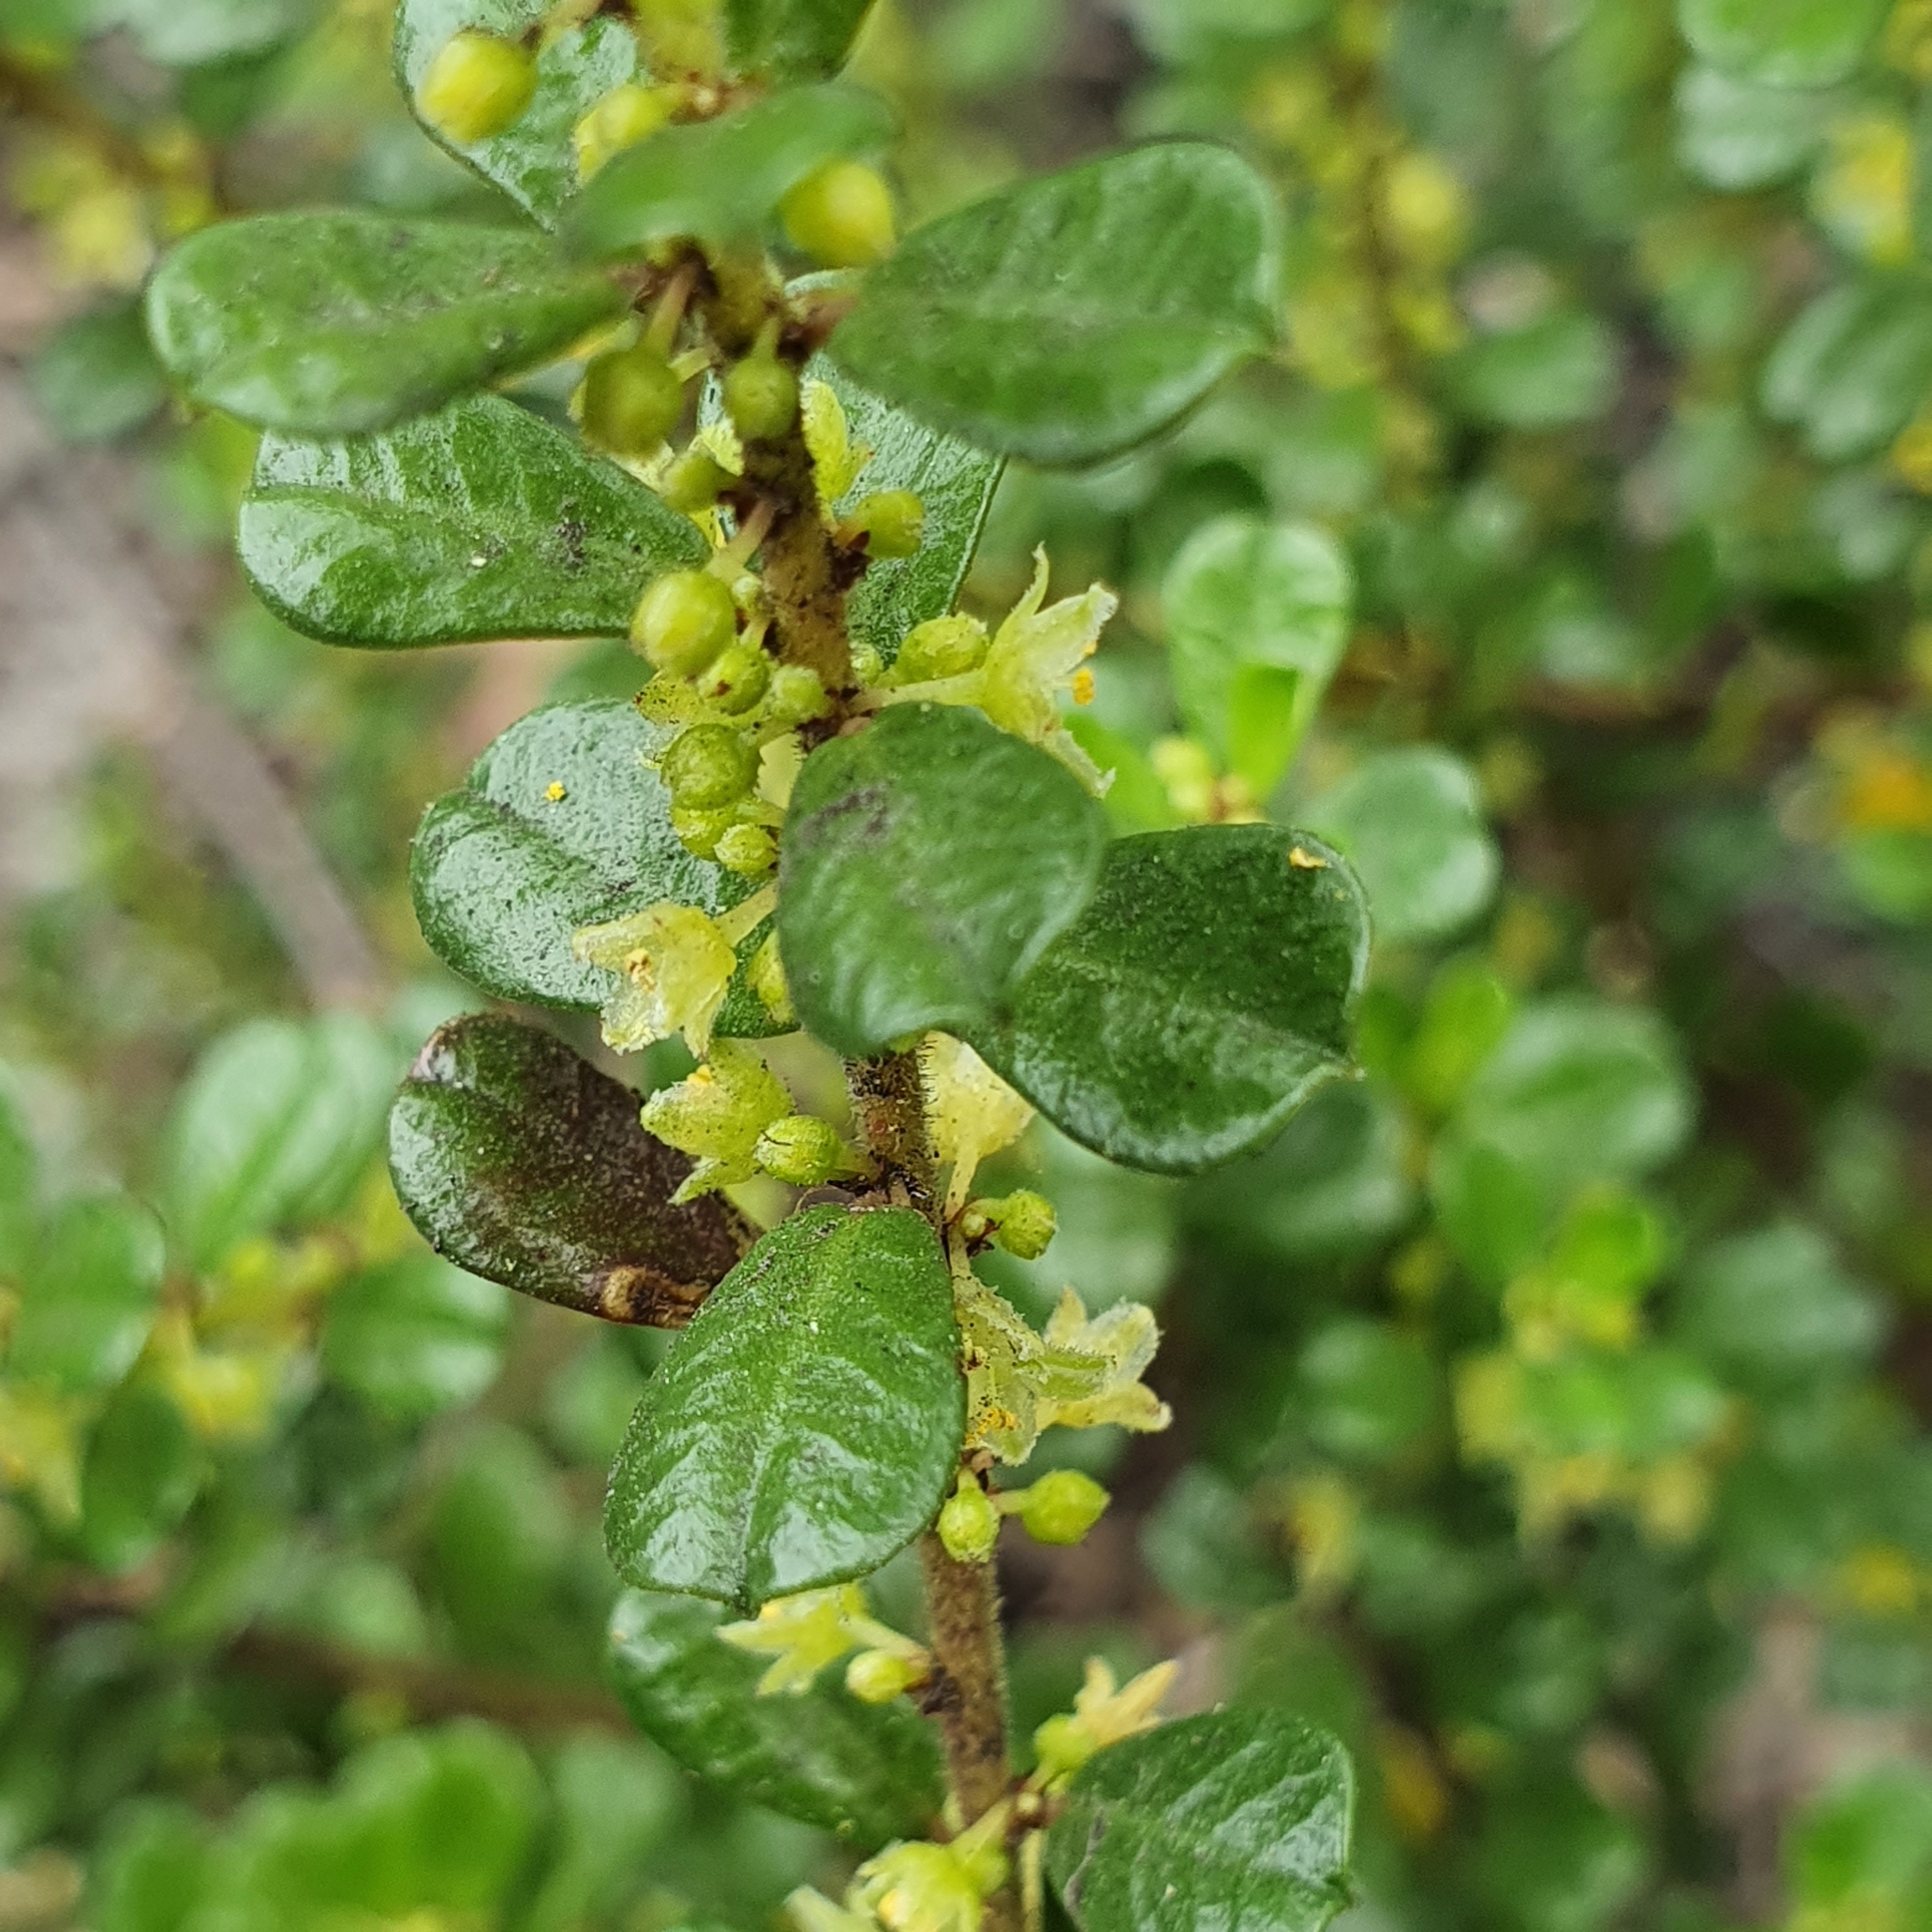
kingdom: Plantae
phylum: Tracheophyta
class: Magnoliopsida
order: Malpighiales
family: Phyllanthaceae
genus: Phyllanthus
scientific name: Phyllanthus hirtellus
